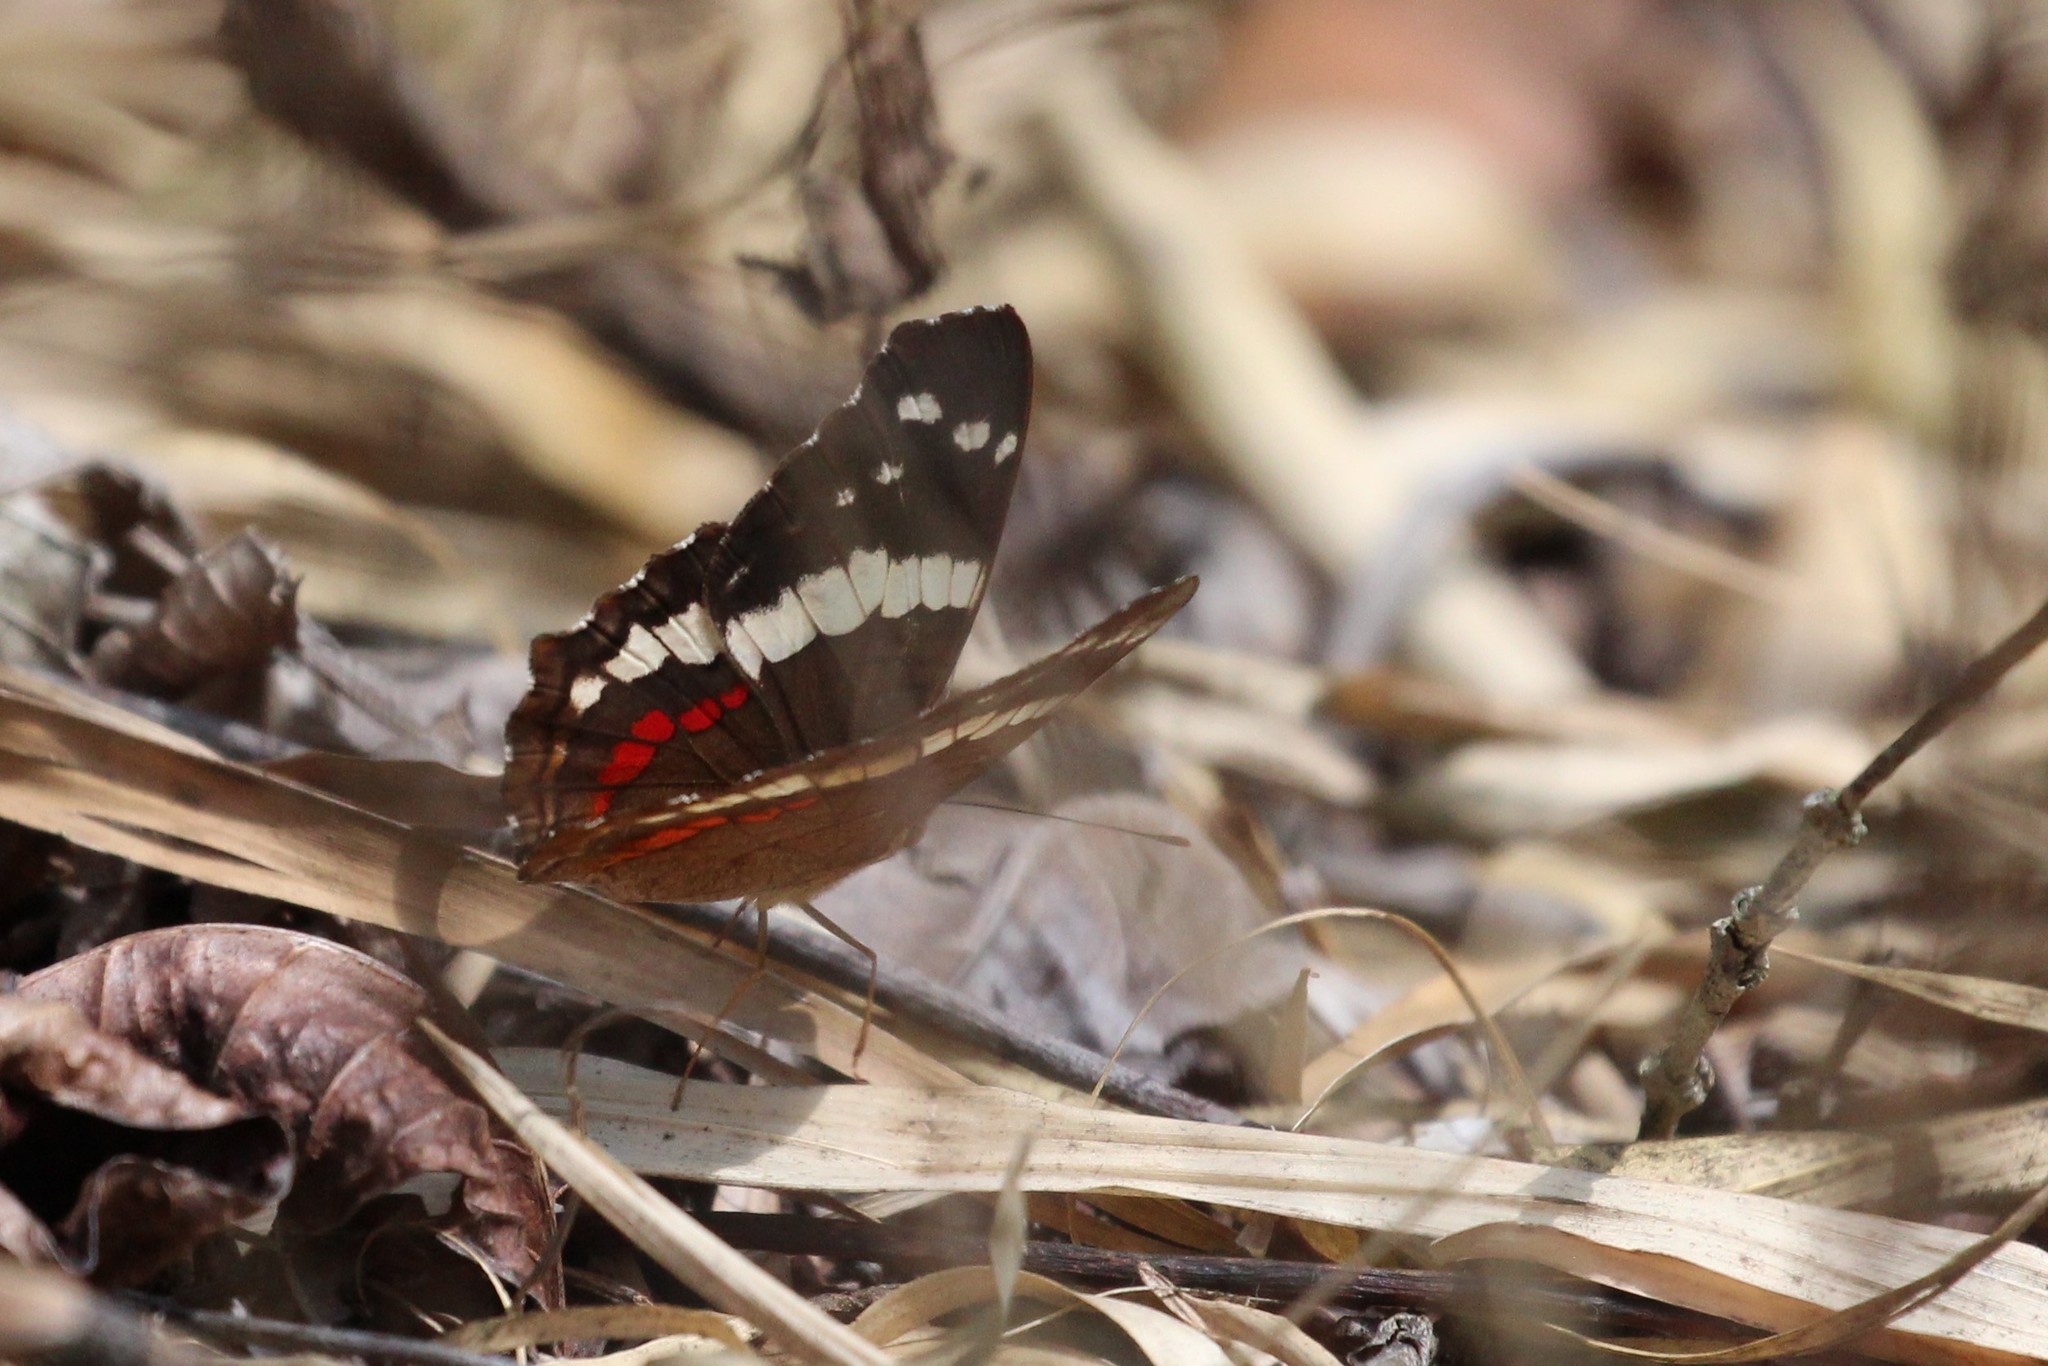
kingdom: Animalia
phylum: Arthropoda
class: Insecta
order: Lepidoptera
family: Nymphalidae
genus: Anartia
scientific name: Anartia fatima
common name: Banded peacock
